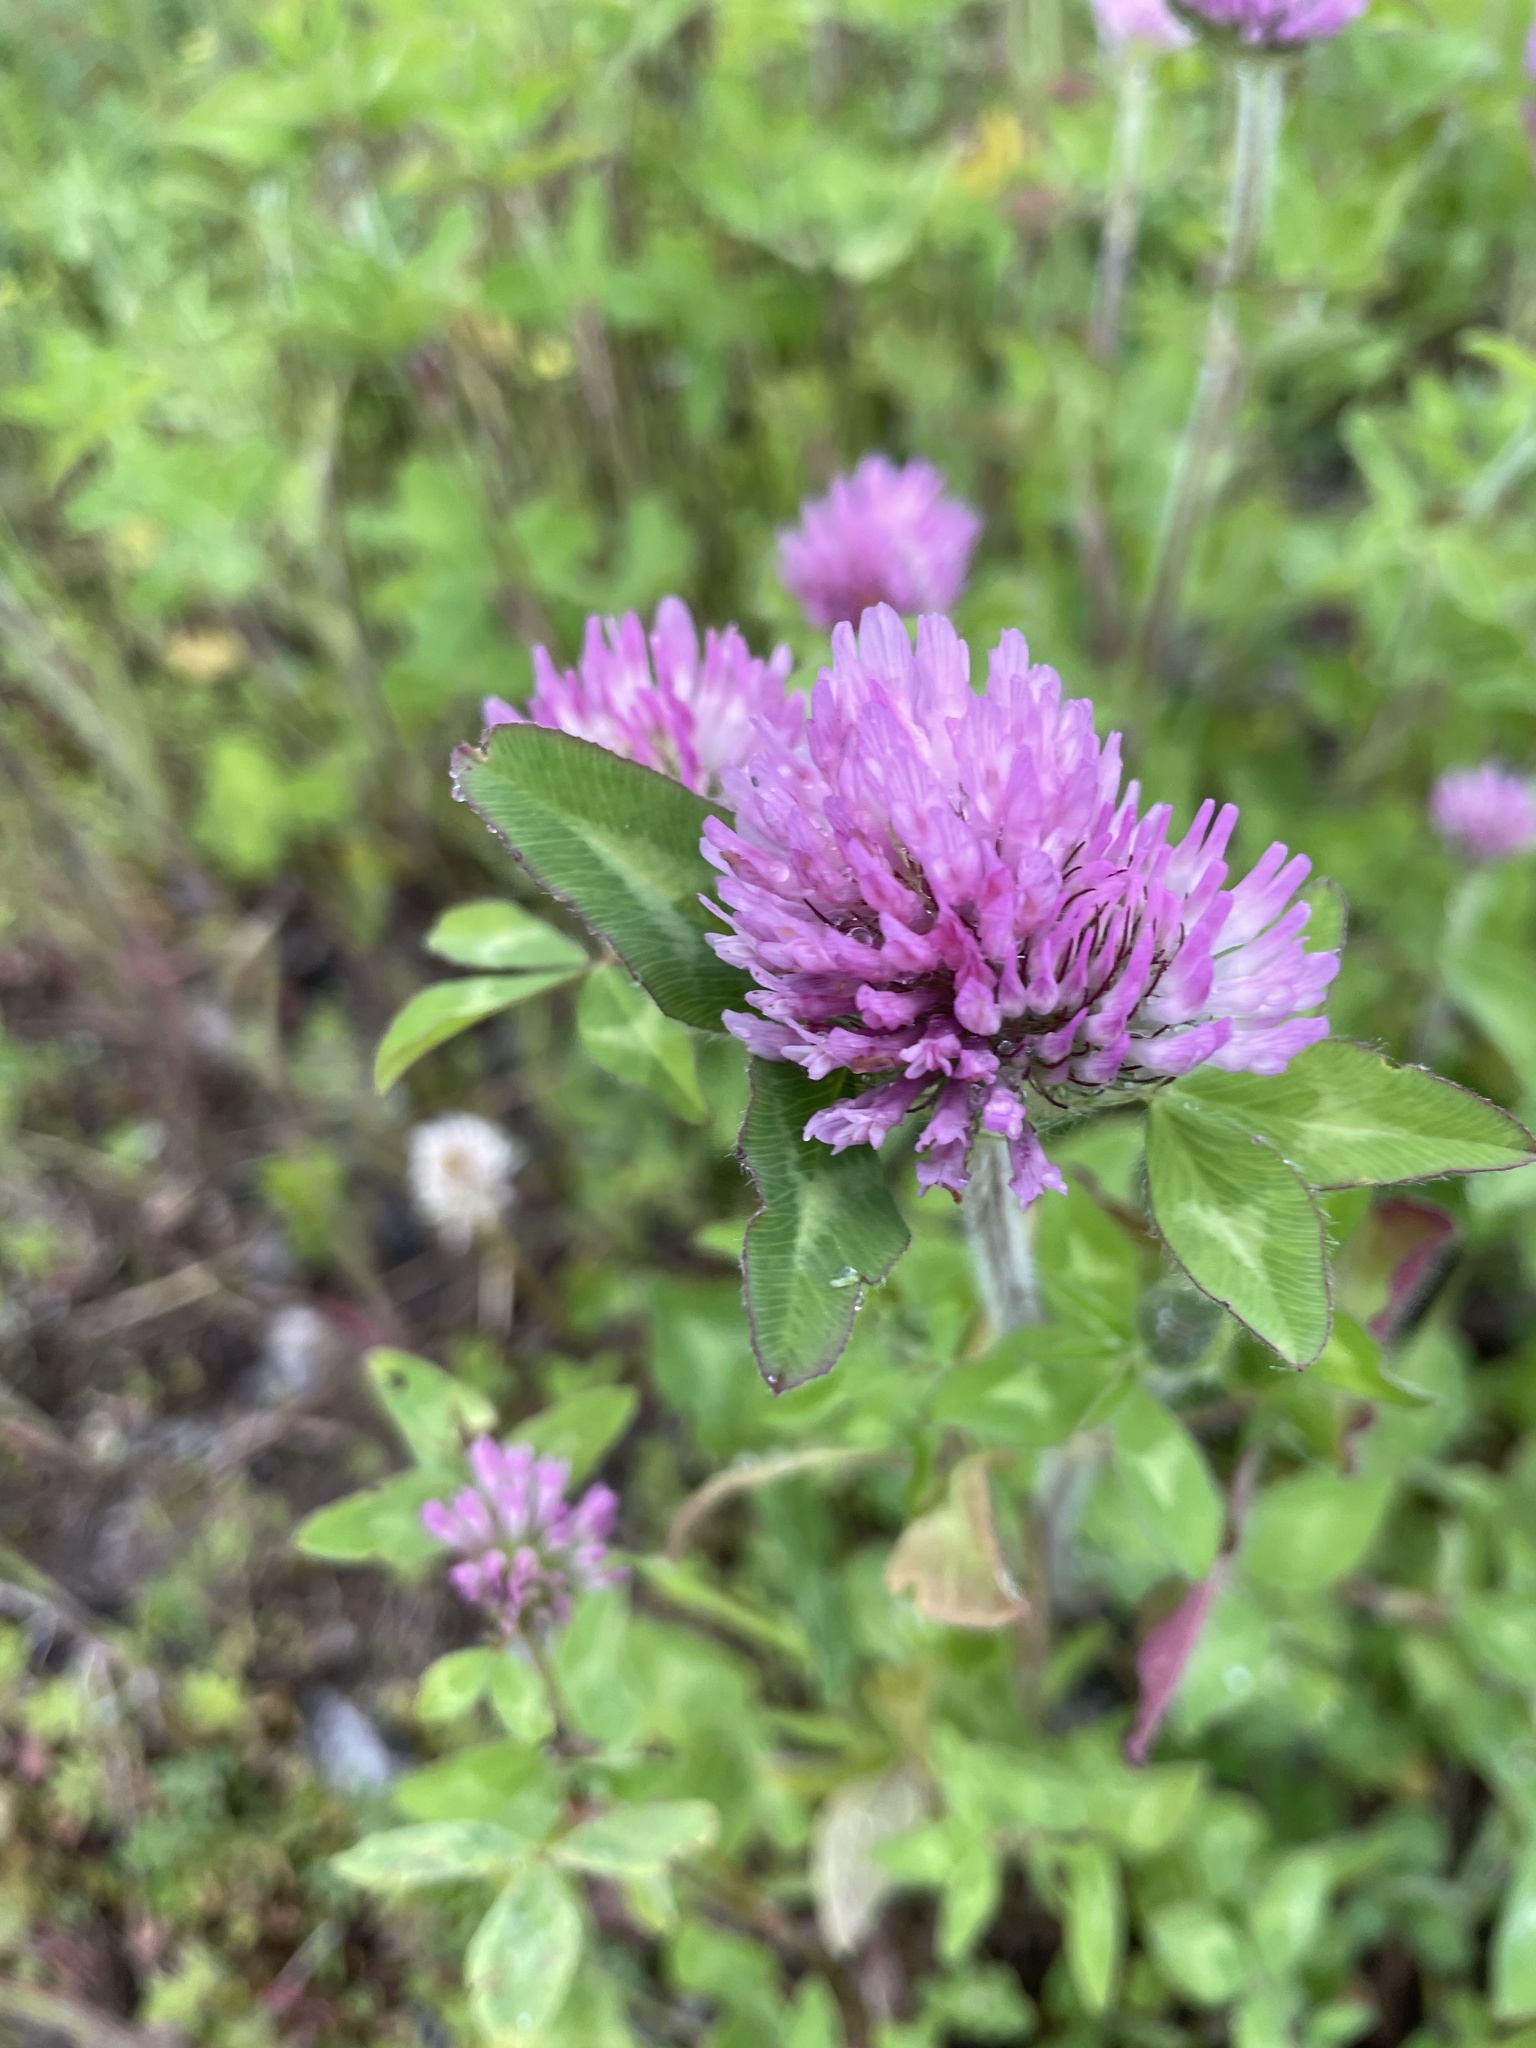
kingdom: Plantae
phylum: Tracheophyta
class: Magnoliopsida
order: Fabales
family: Fabaceae
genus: Trifolium
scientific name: Trifolium pratense
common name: Red clover
